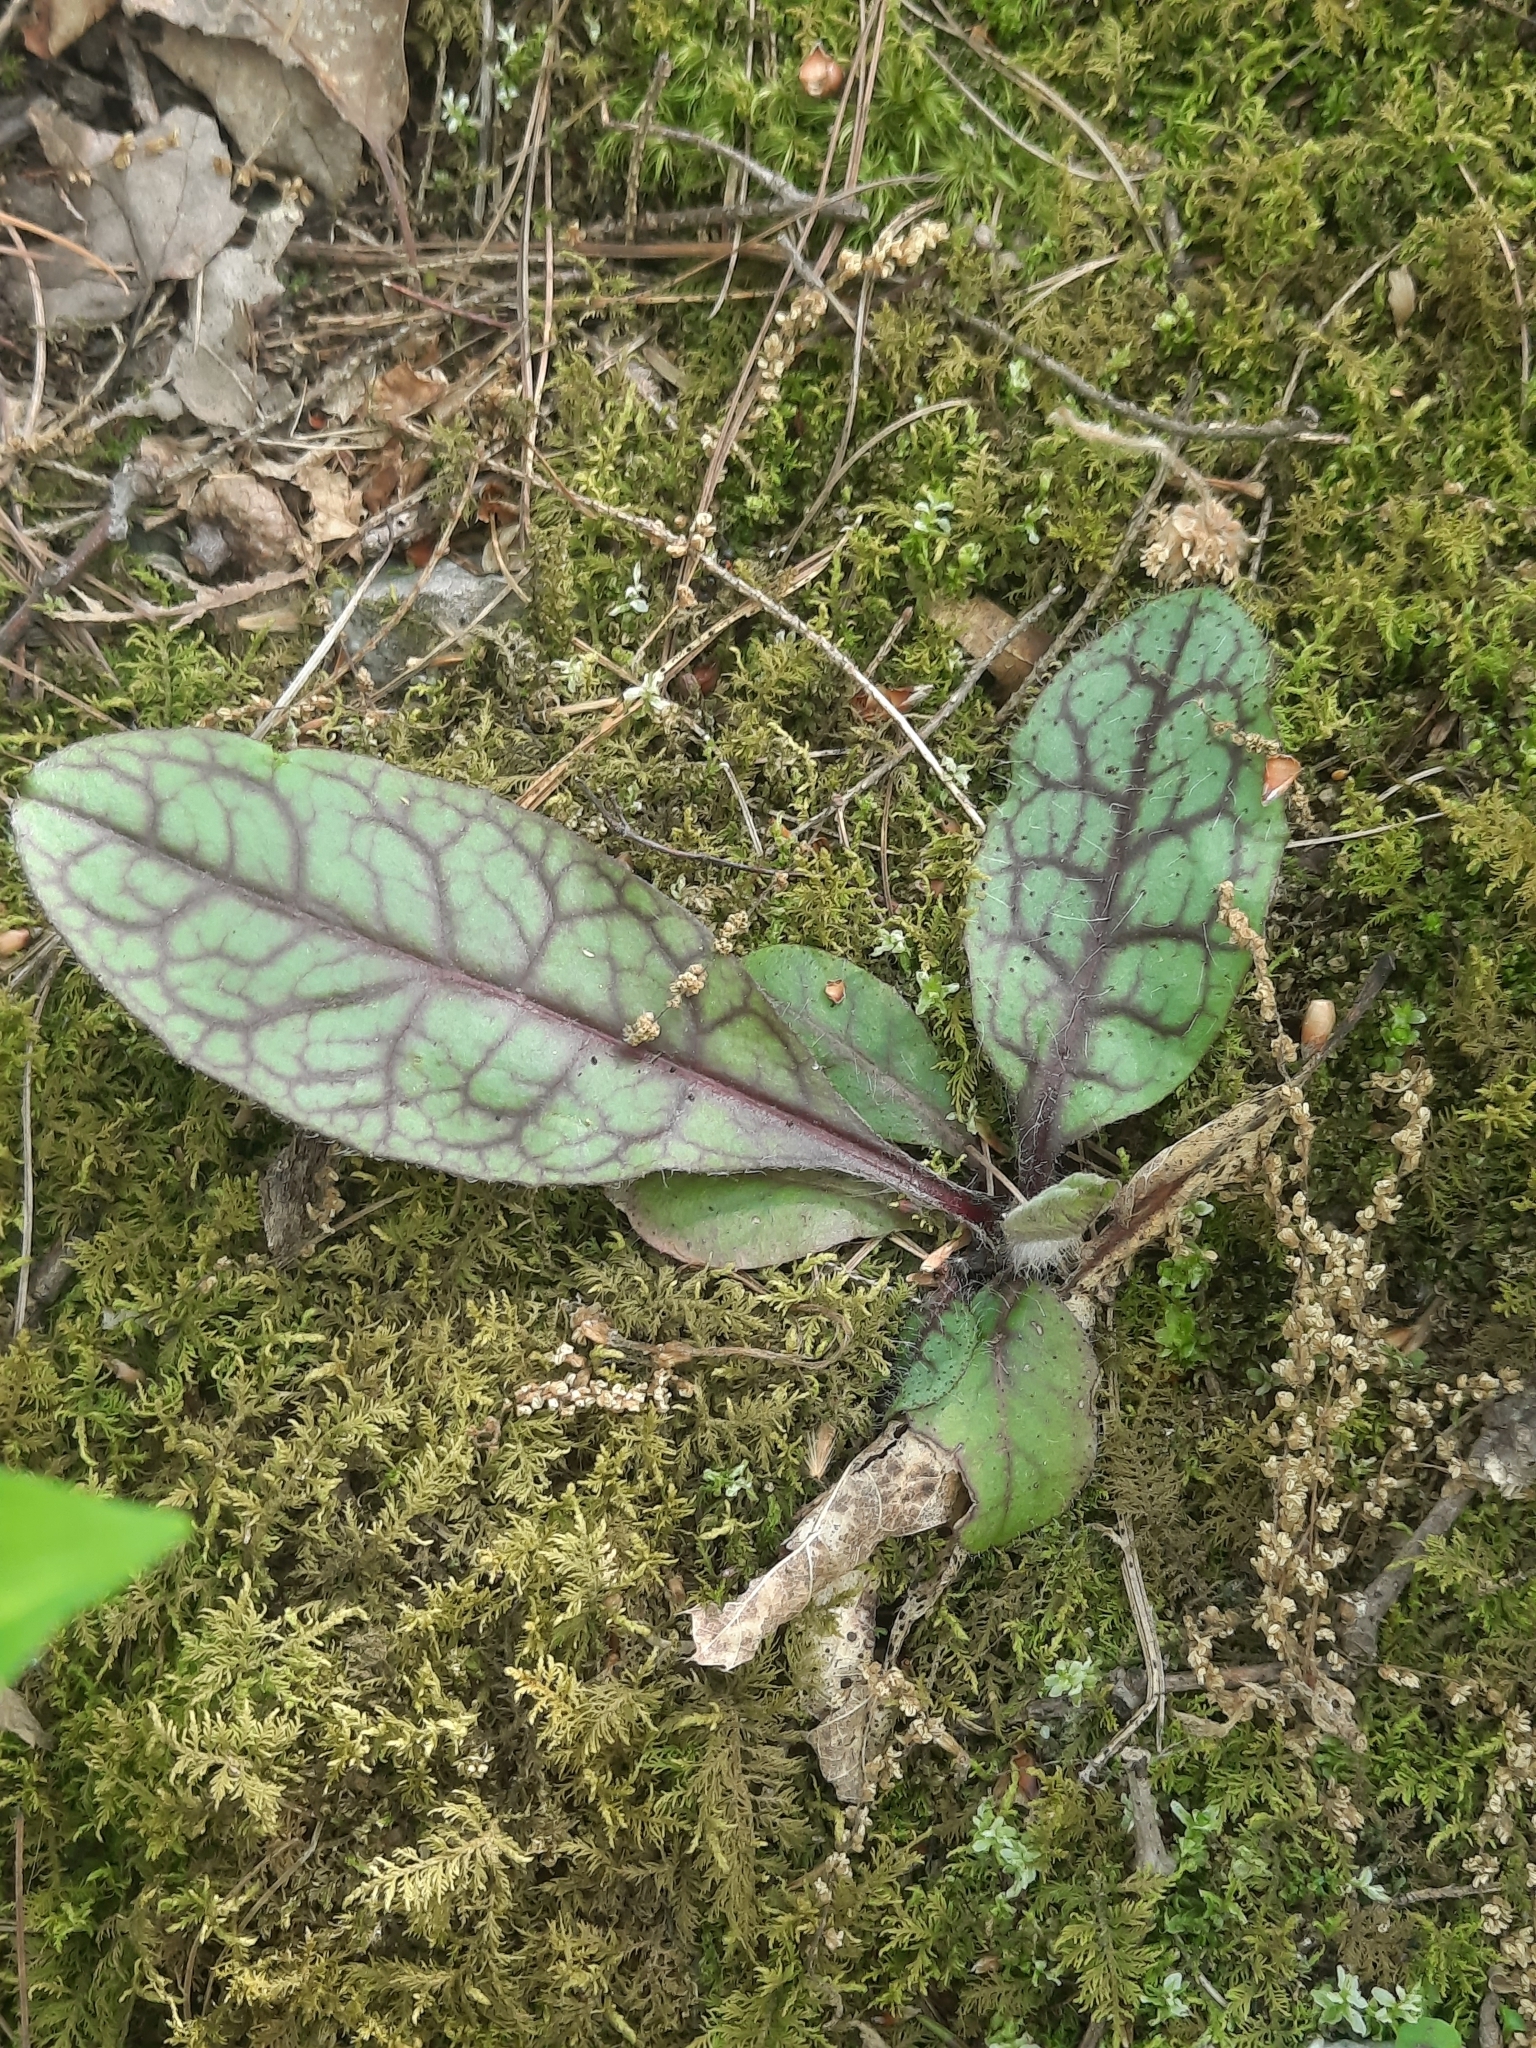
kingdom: Plantae
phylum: Tracheophyta
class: Magnoliopsida
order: Asterales
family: Asteraceae
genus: Hieracium
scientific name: Hieracium venosum
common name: Rattlesnake hawkweed
